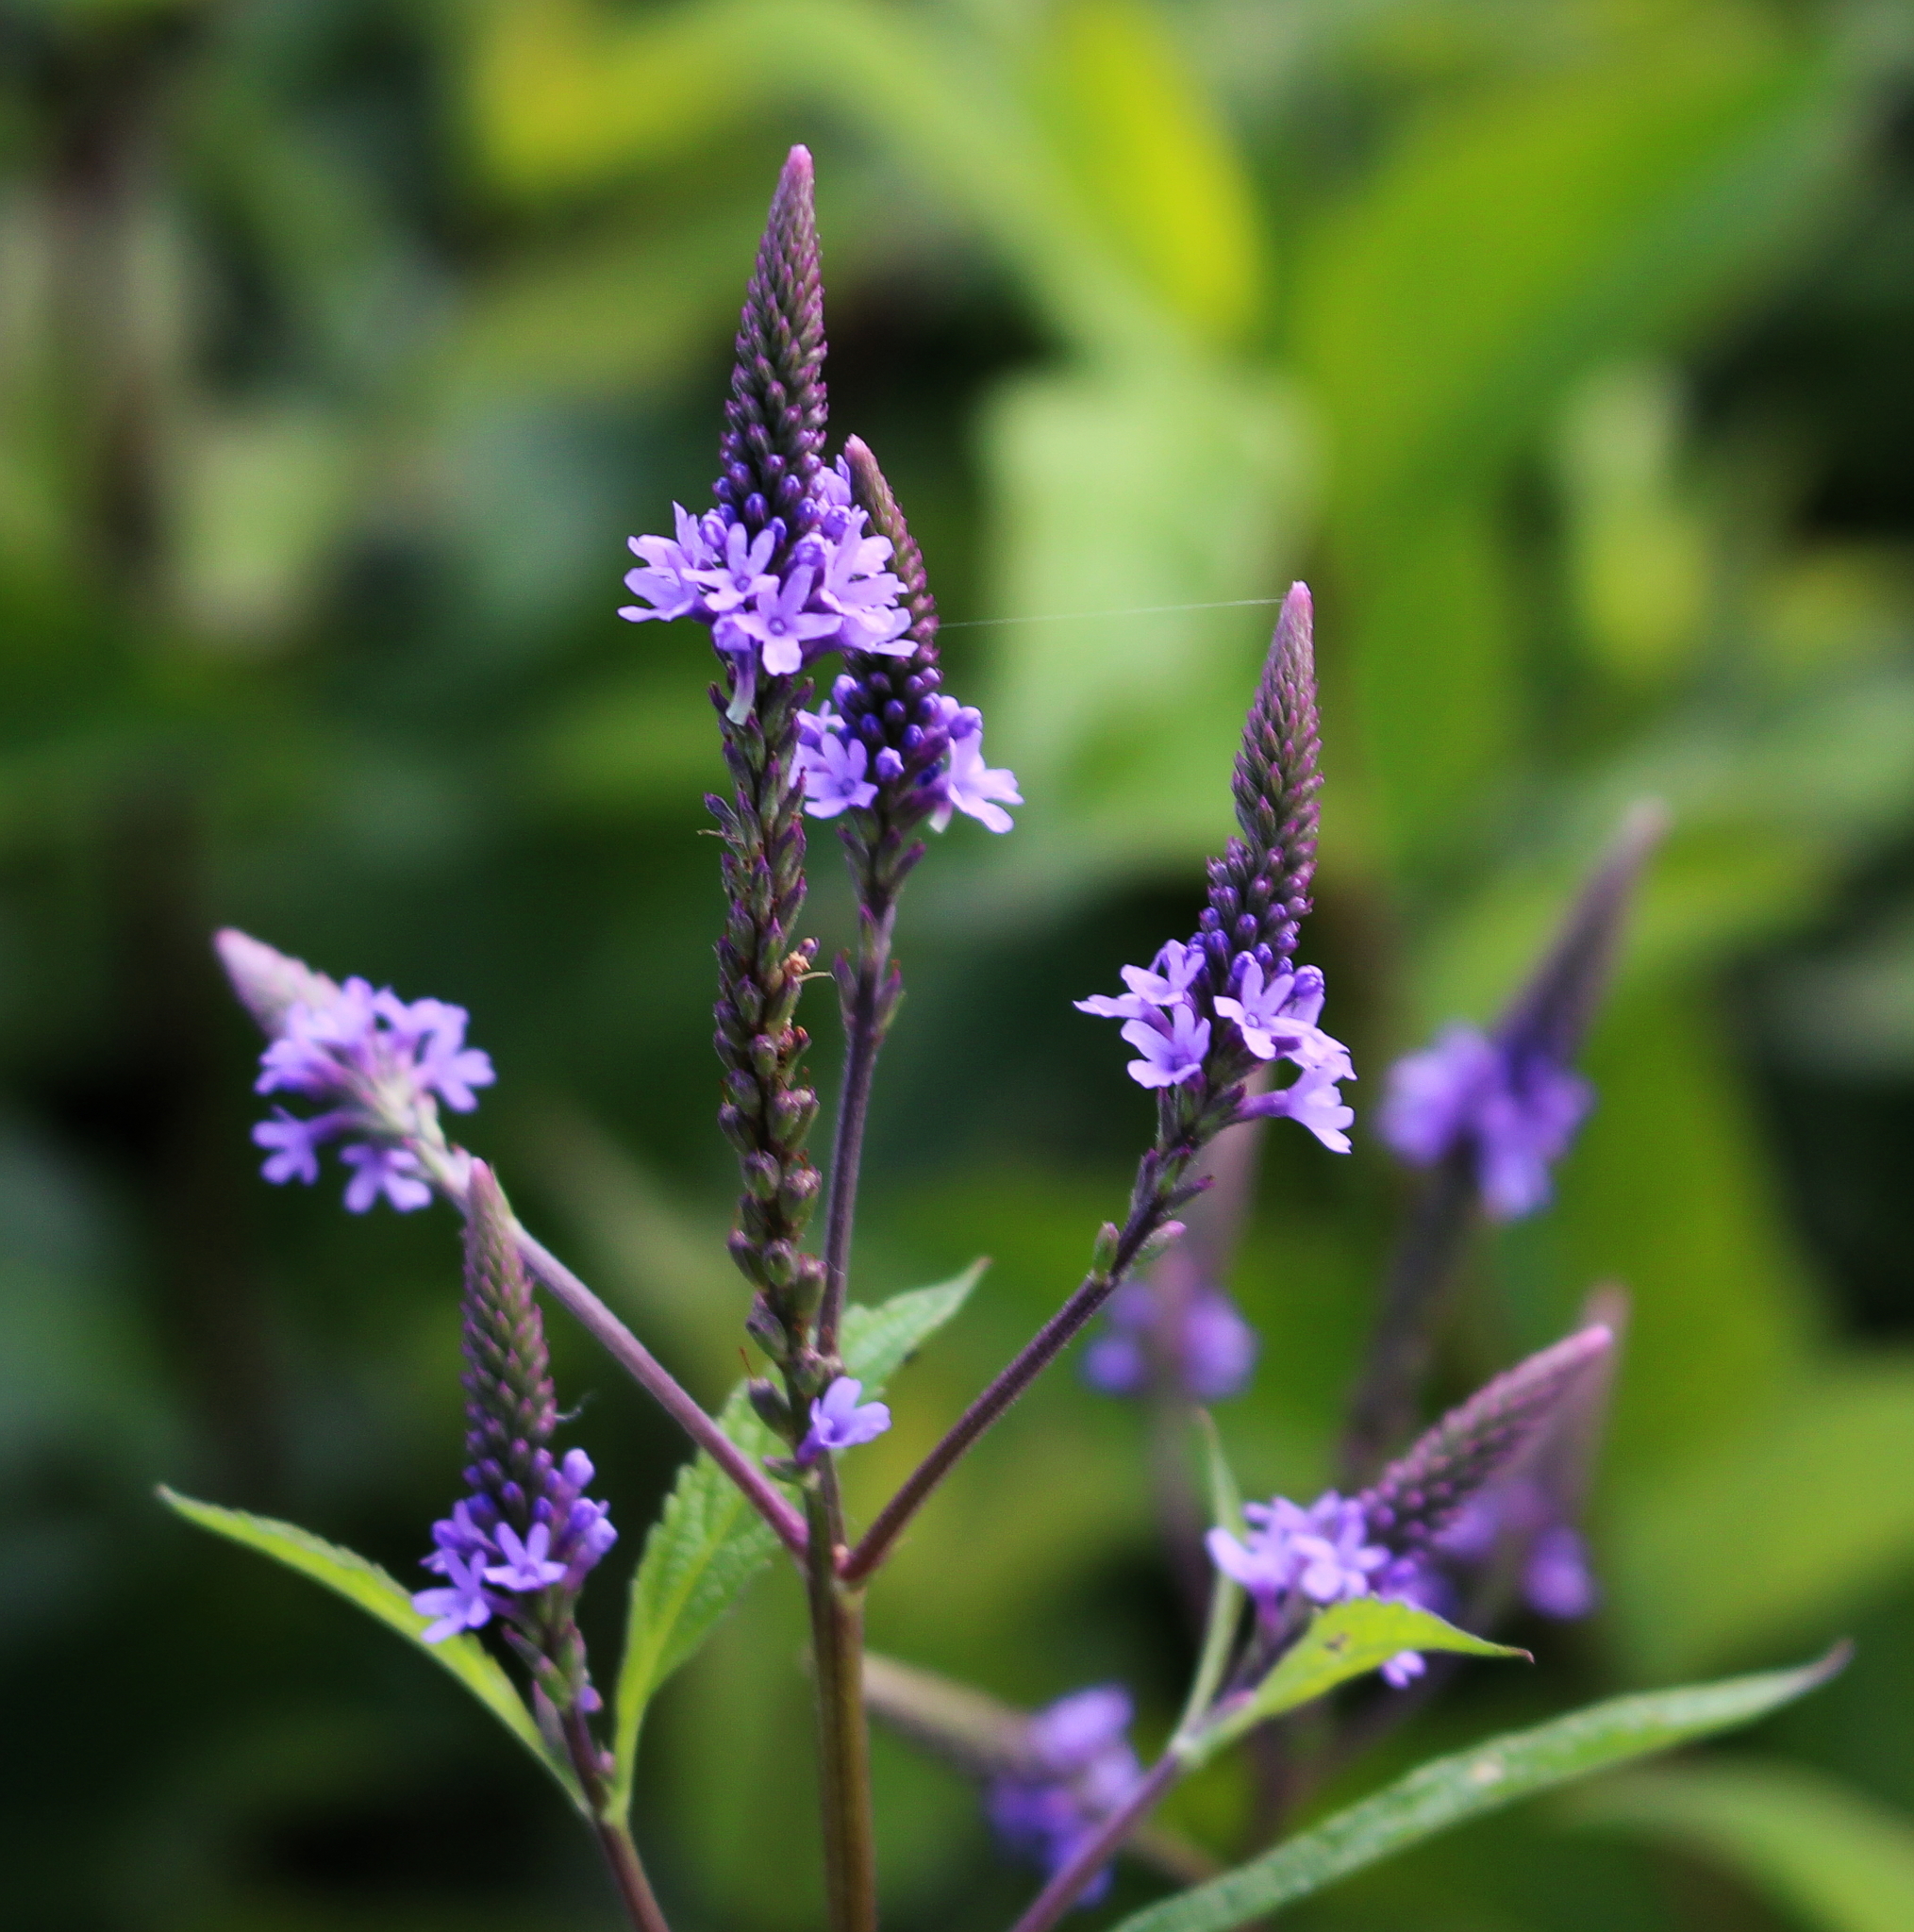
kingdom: Plantae
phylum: Tracheophyta
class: Magnoliopsida
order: Lamiales
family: Verbenaceae
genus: Verbena
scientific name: Verbena hastata
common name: American blue vervain
